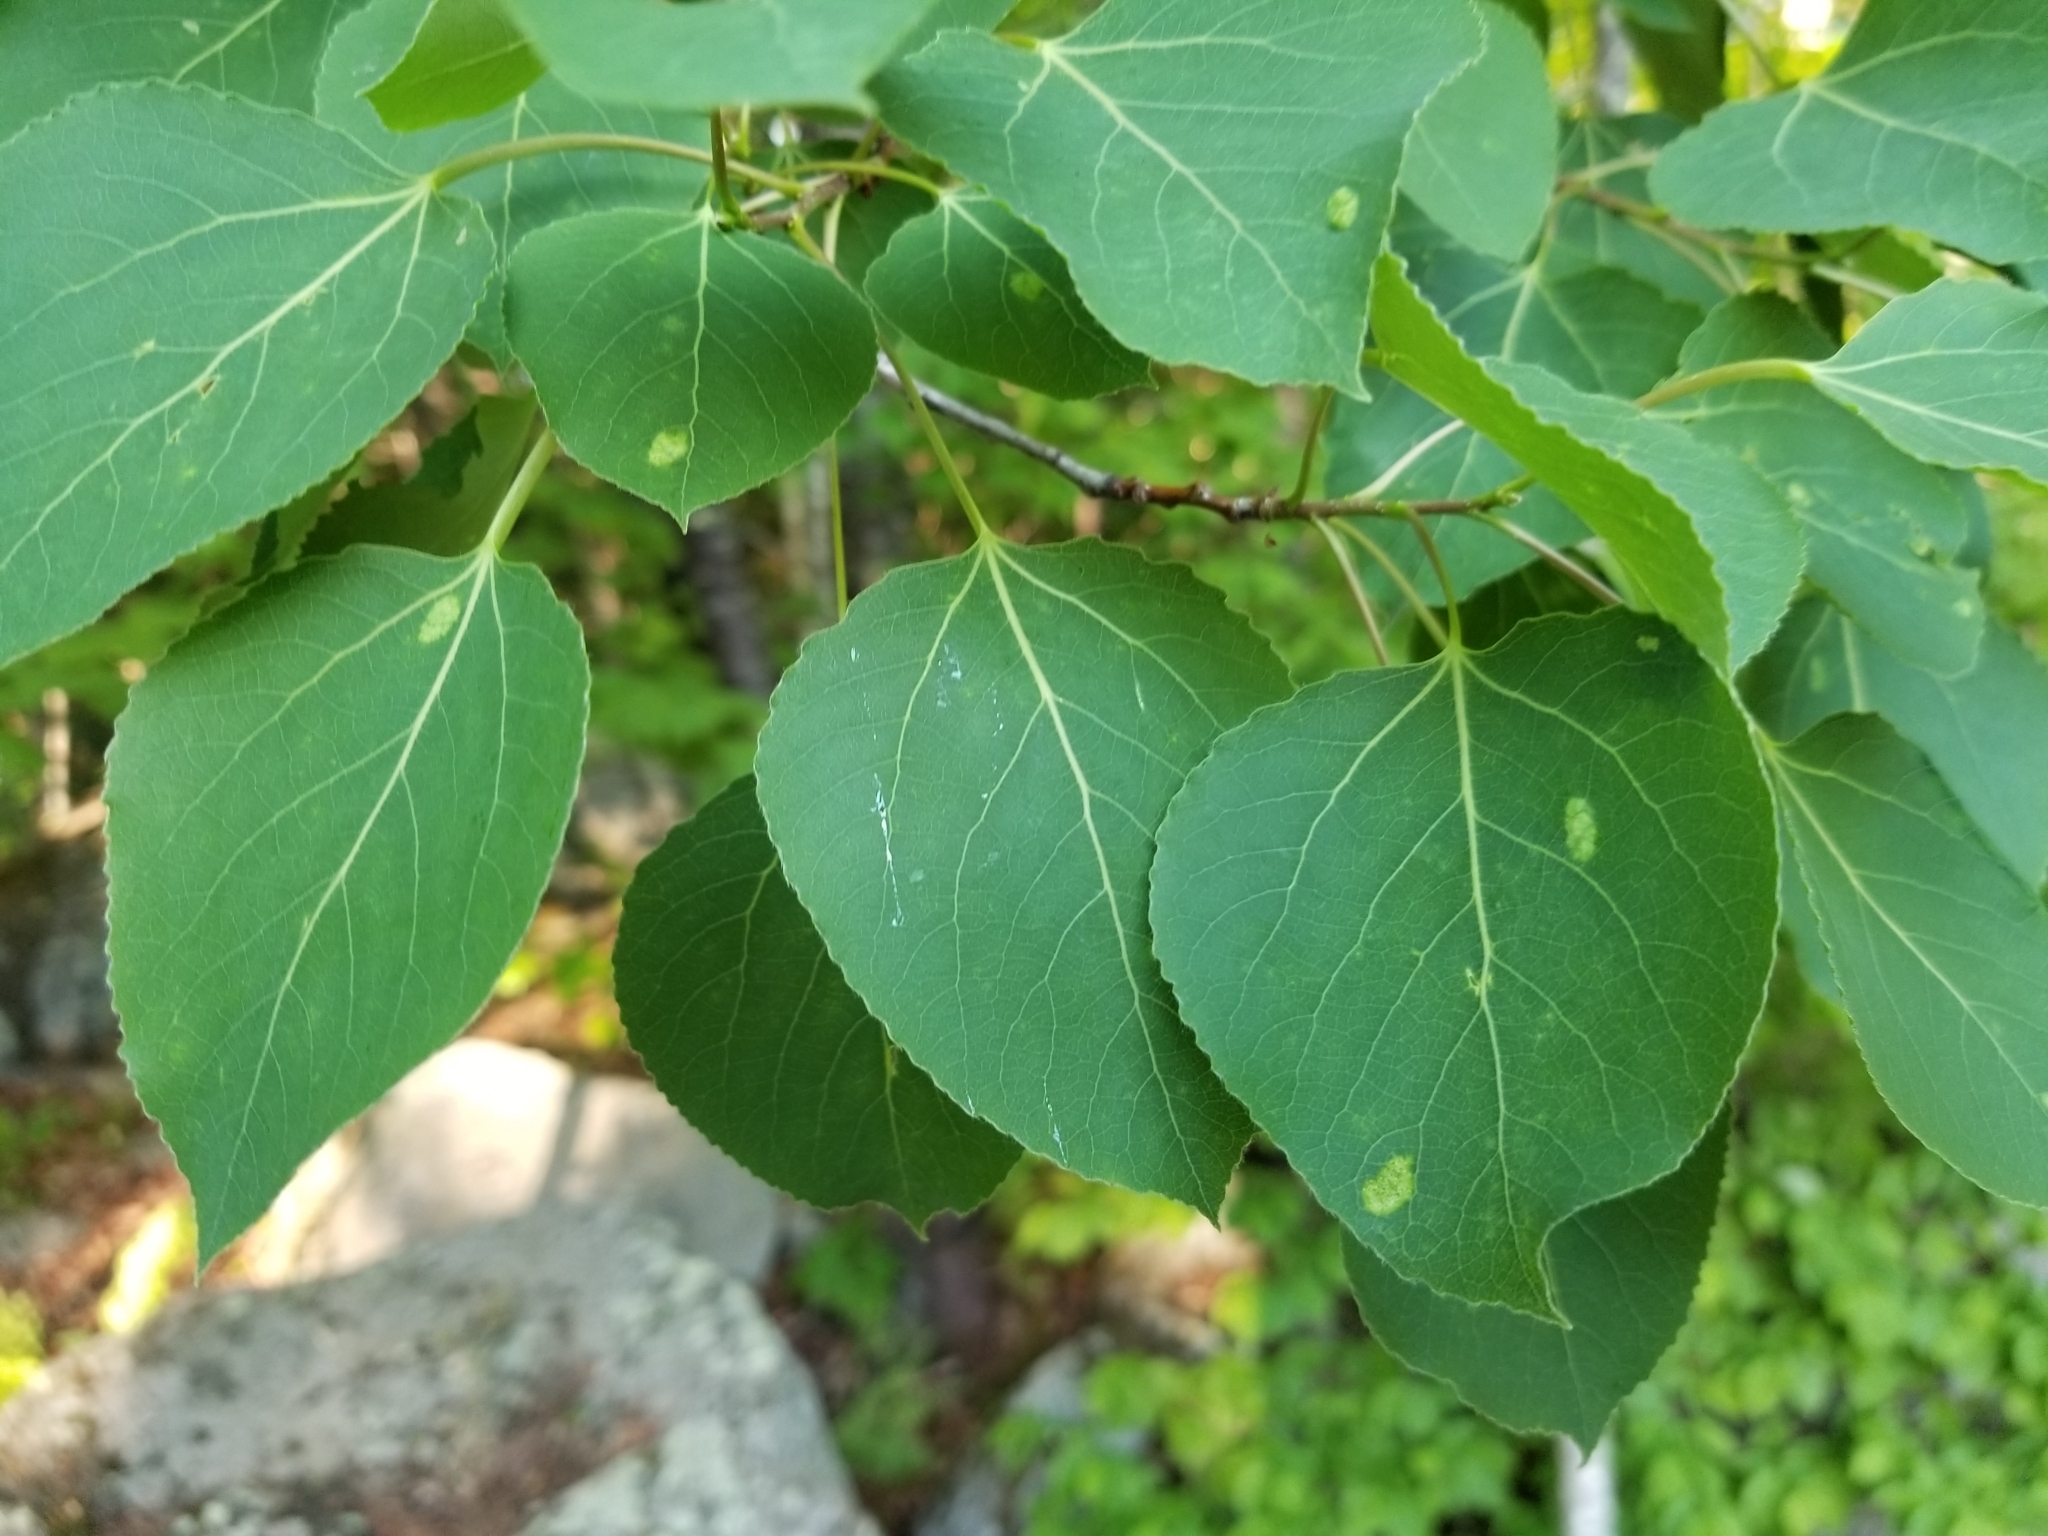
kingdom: Plantae
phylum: Tracheophyta
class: Magnoliopsida
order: Malpighiales
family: Salicaceae
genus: Populus
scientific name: Populus tremuloides
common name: Quaking aspen
